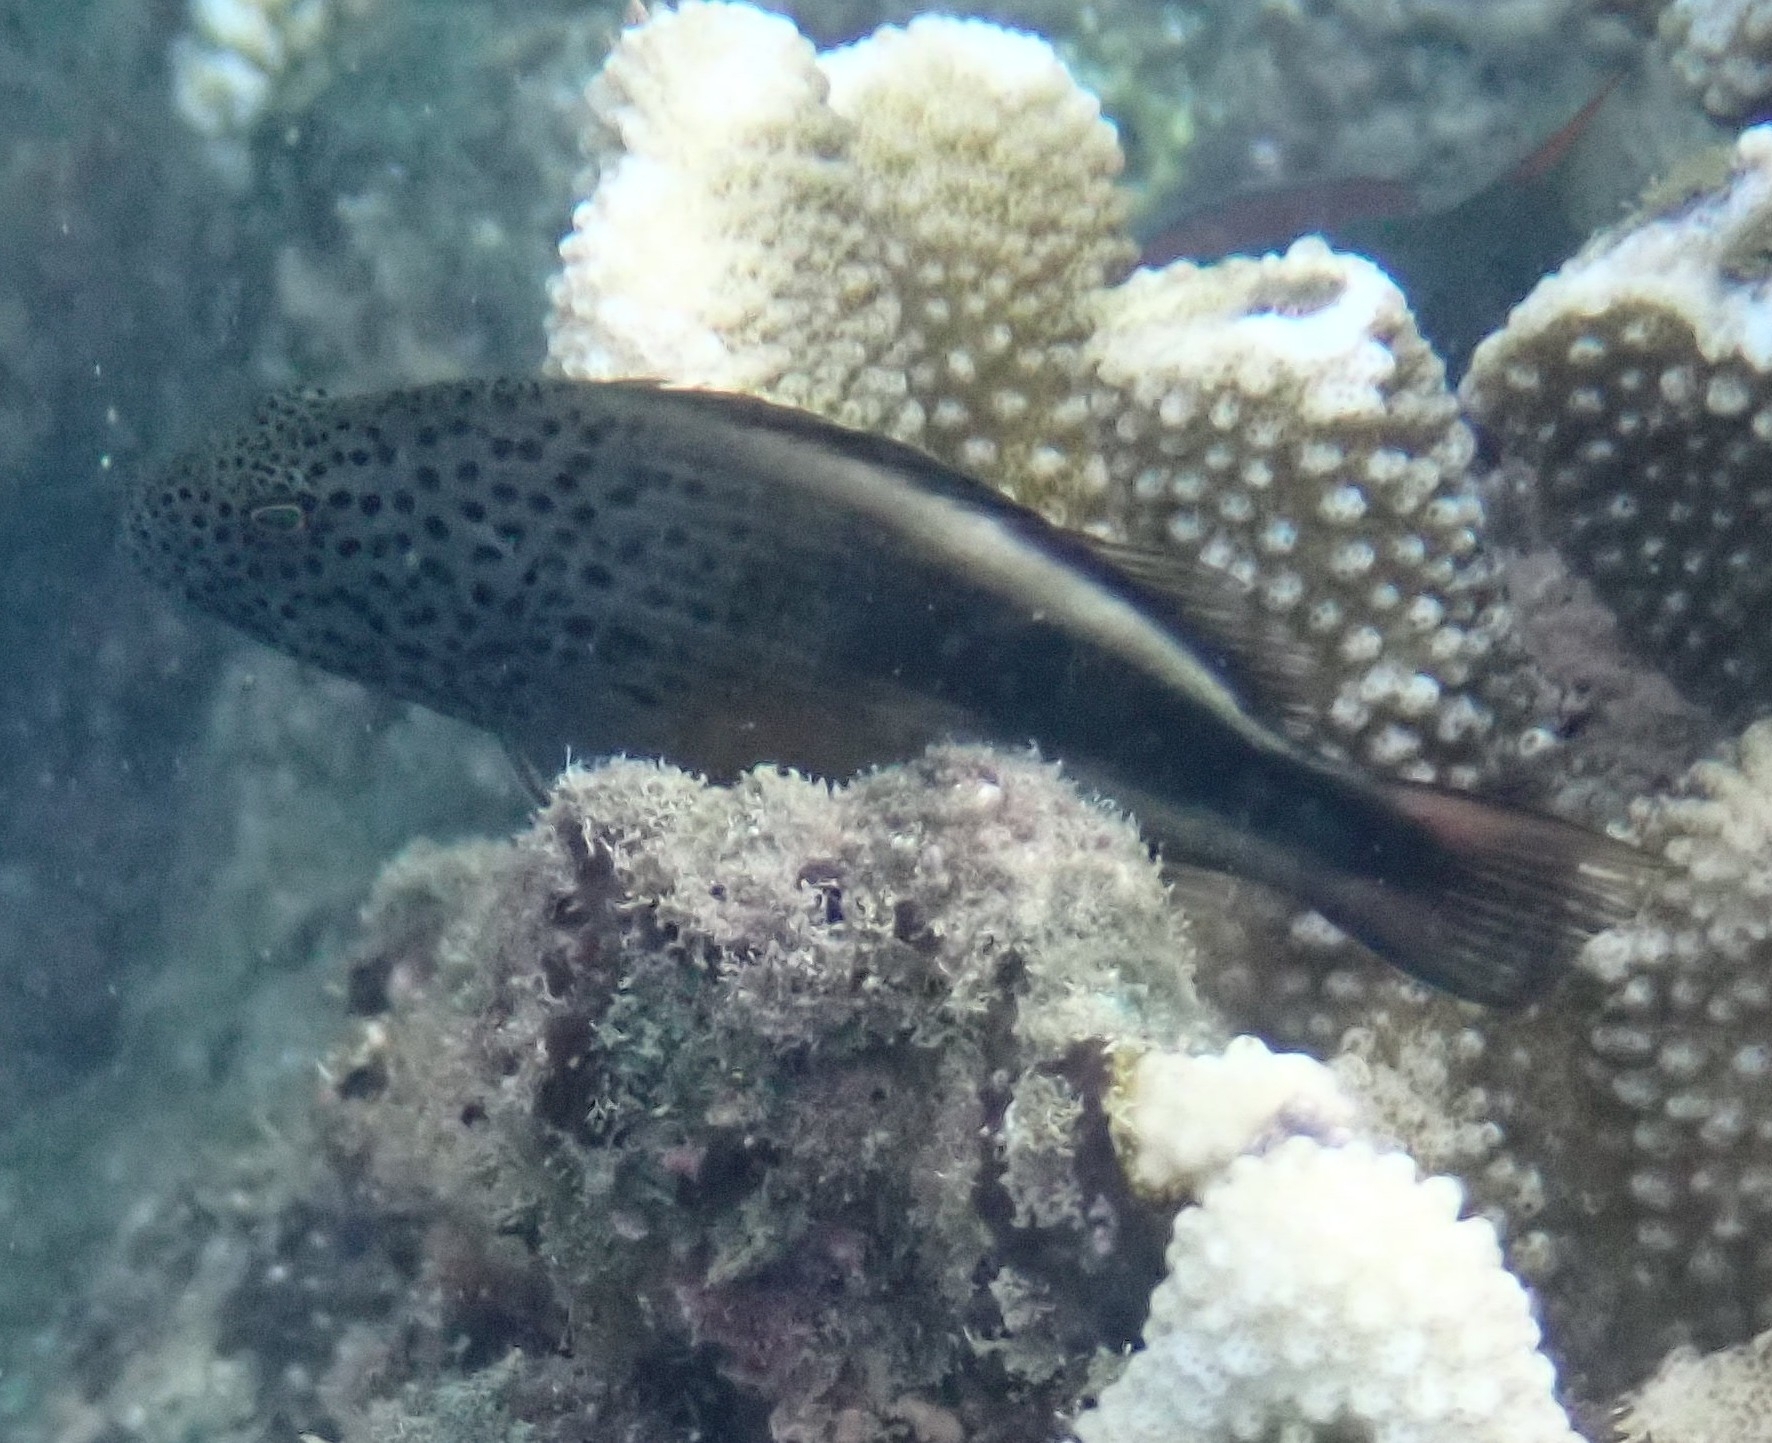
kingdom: Animalia
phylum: Chordata
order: Perciformes
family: Cirrhitidae
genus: Paracirrhites
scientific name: Paracirrhites forsteri
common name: Freckled hawkfish
